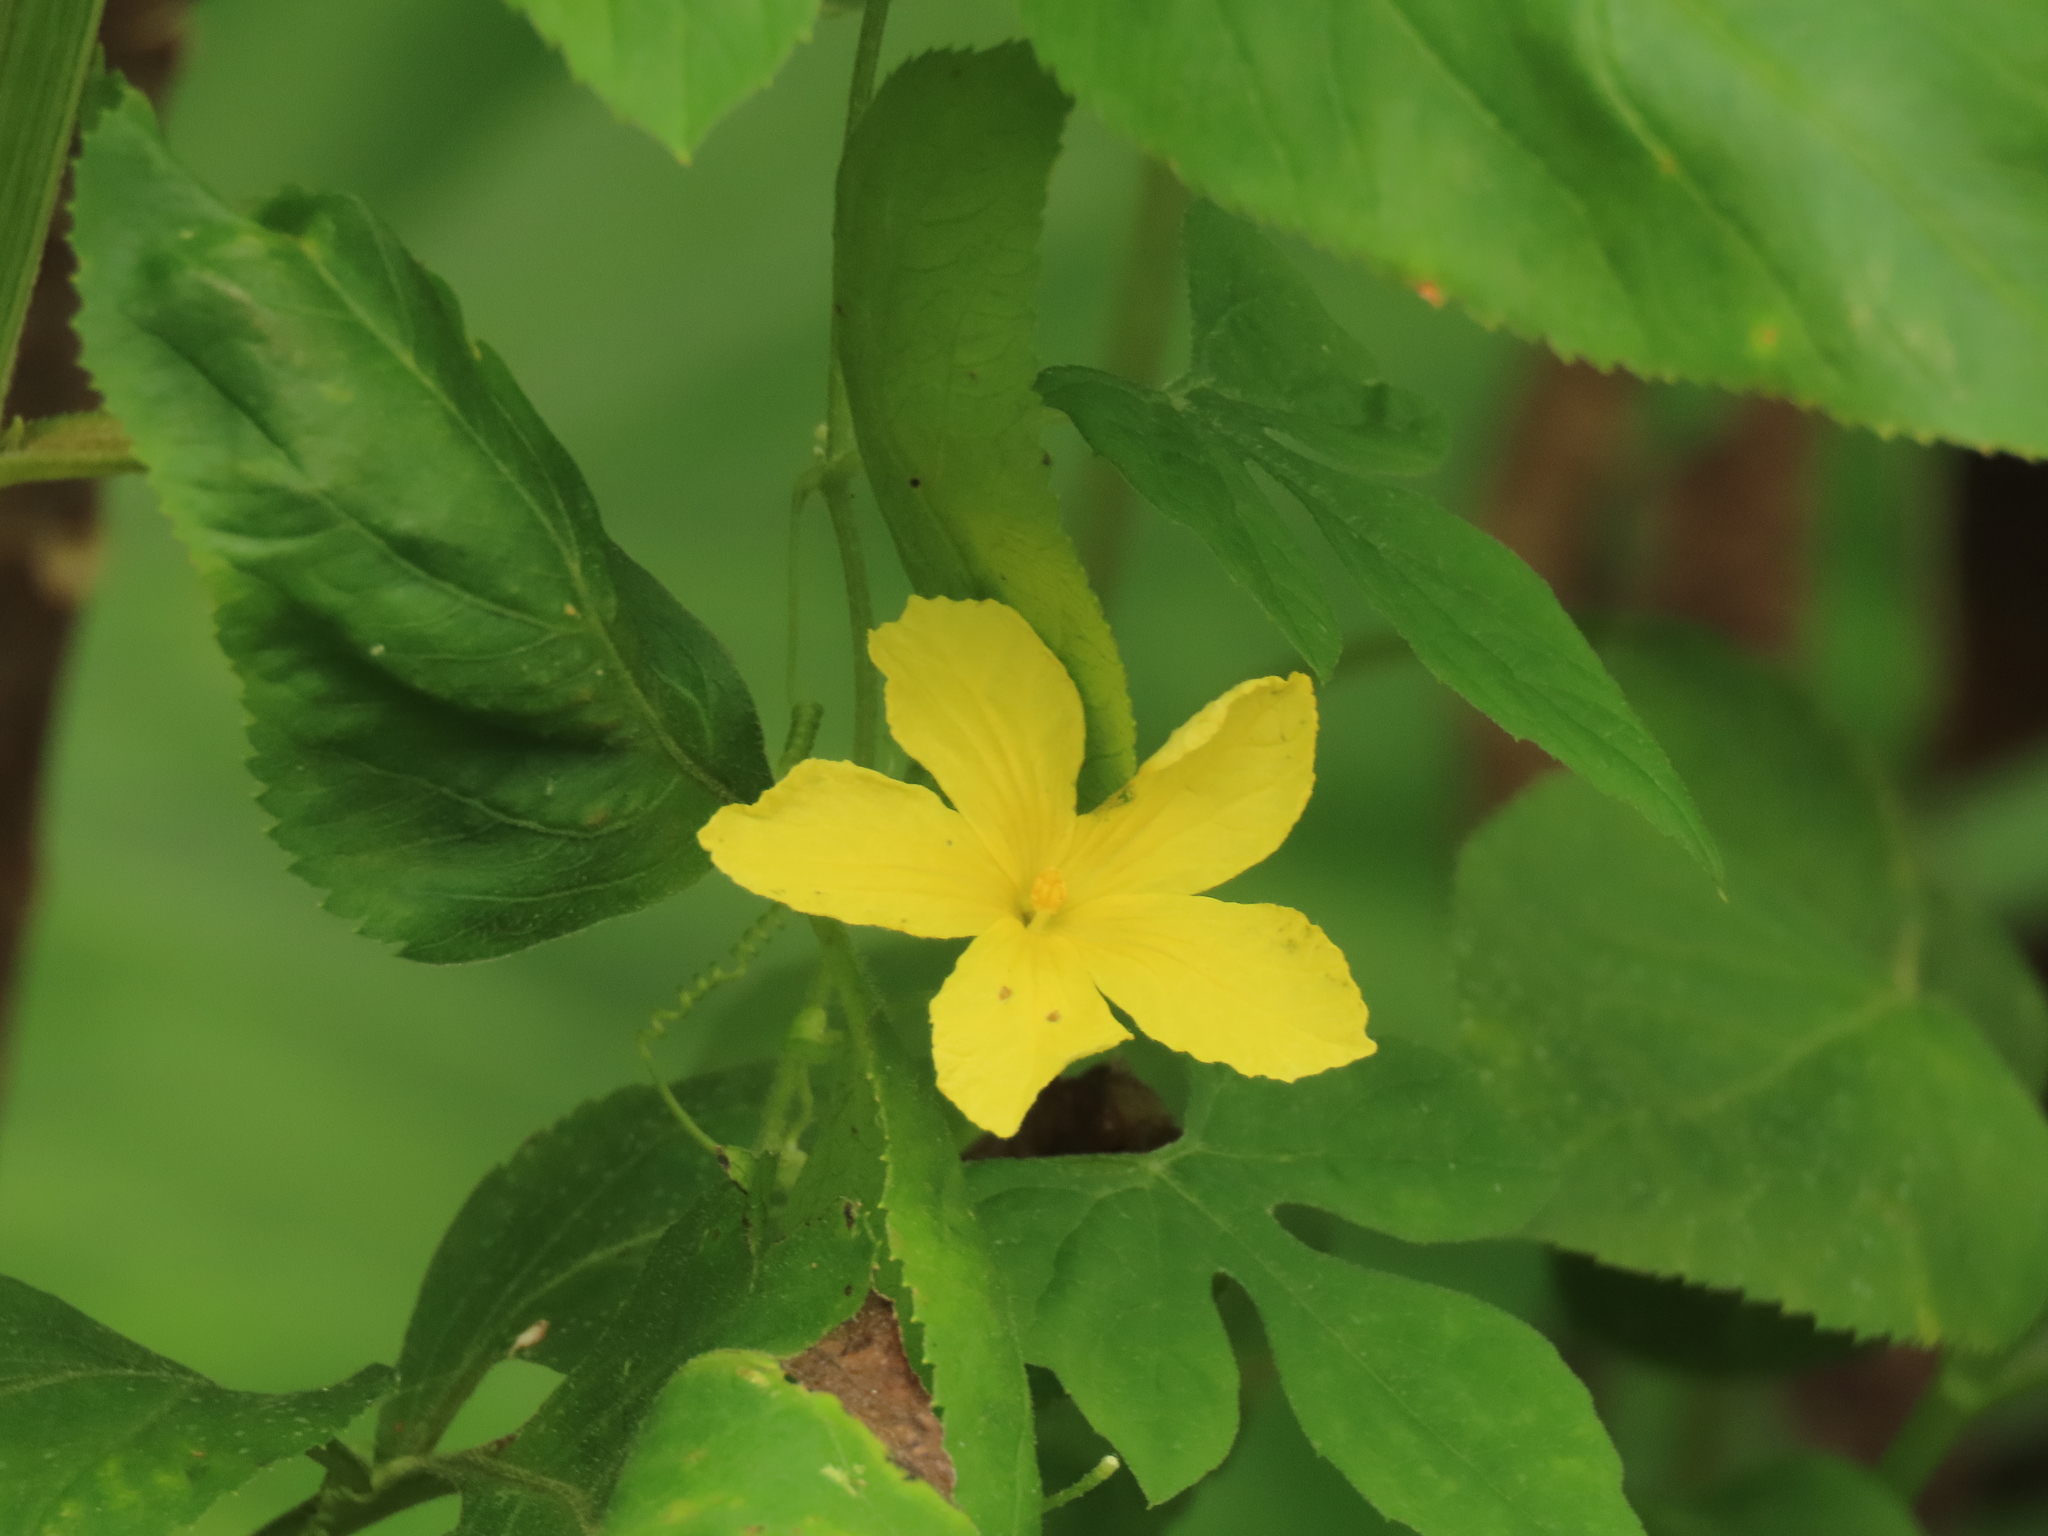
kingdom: Plantae
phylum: Tracheophyta
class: Magnoliopsida
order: Cucurbitales
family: Cucurbitaceae
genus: Momordica
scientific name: Momordica charantia
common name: Balsampear
